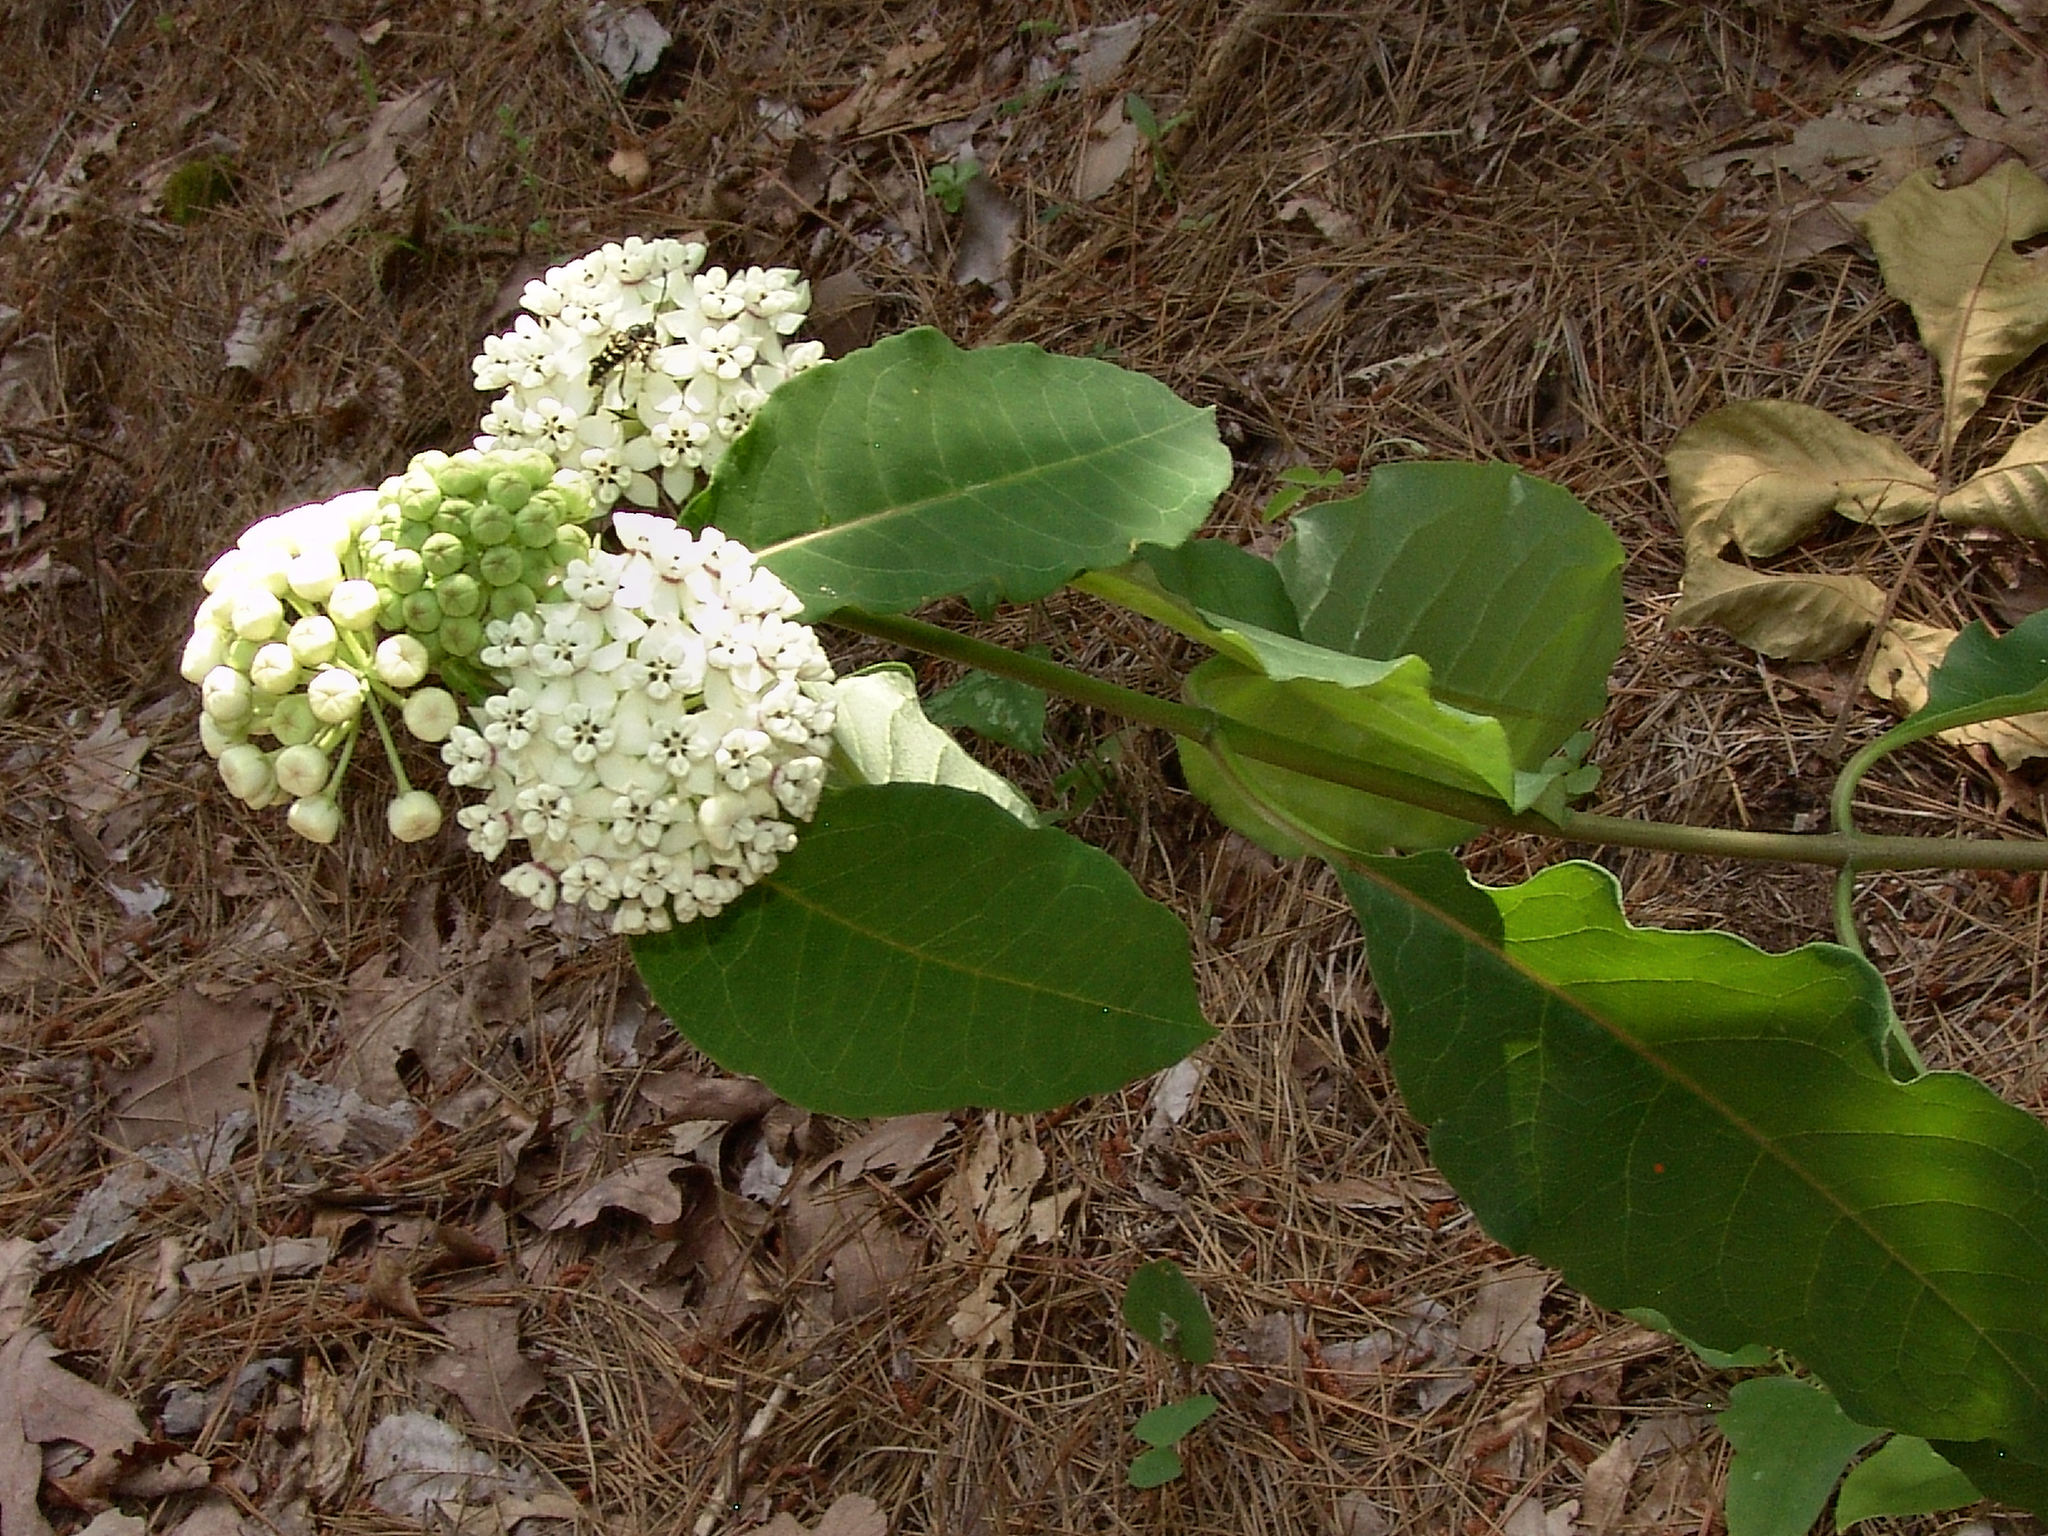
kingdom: Plantae
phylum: Tracheophyta
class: Magnoliopsida
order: Gentianales
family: Apocynaceae
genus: Asclepias
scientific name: Asclepias variegata
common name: Variegated milkweed
